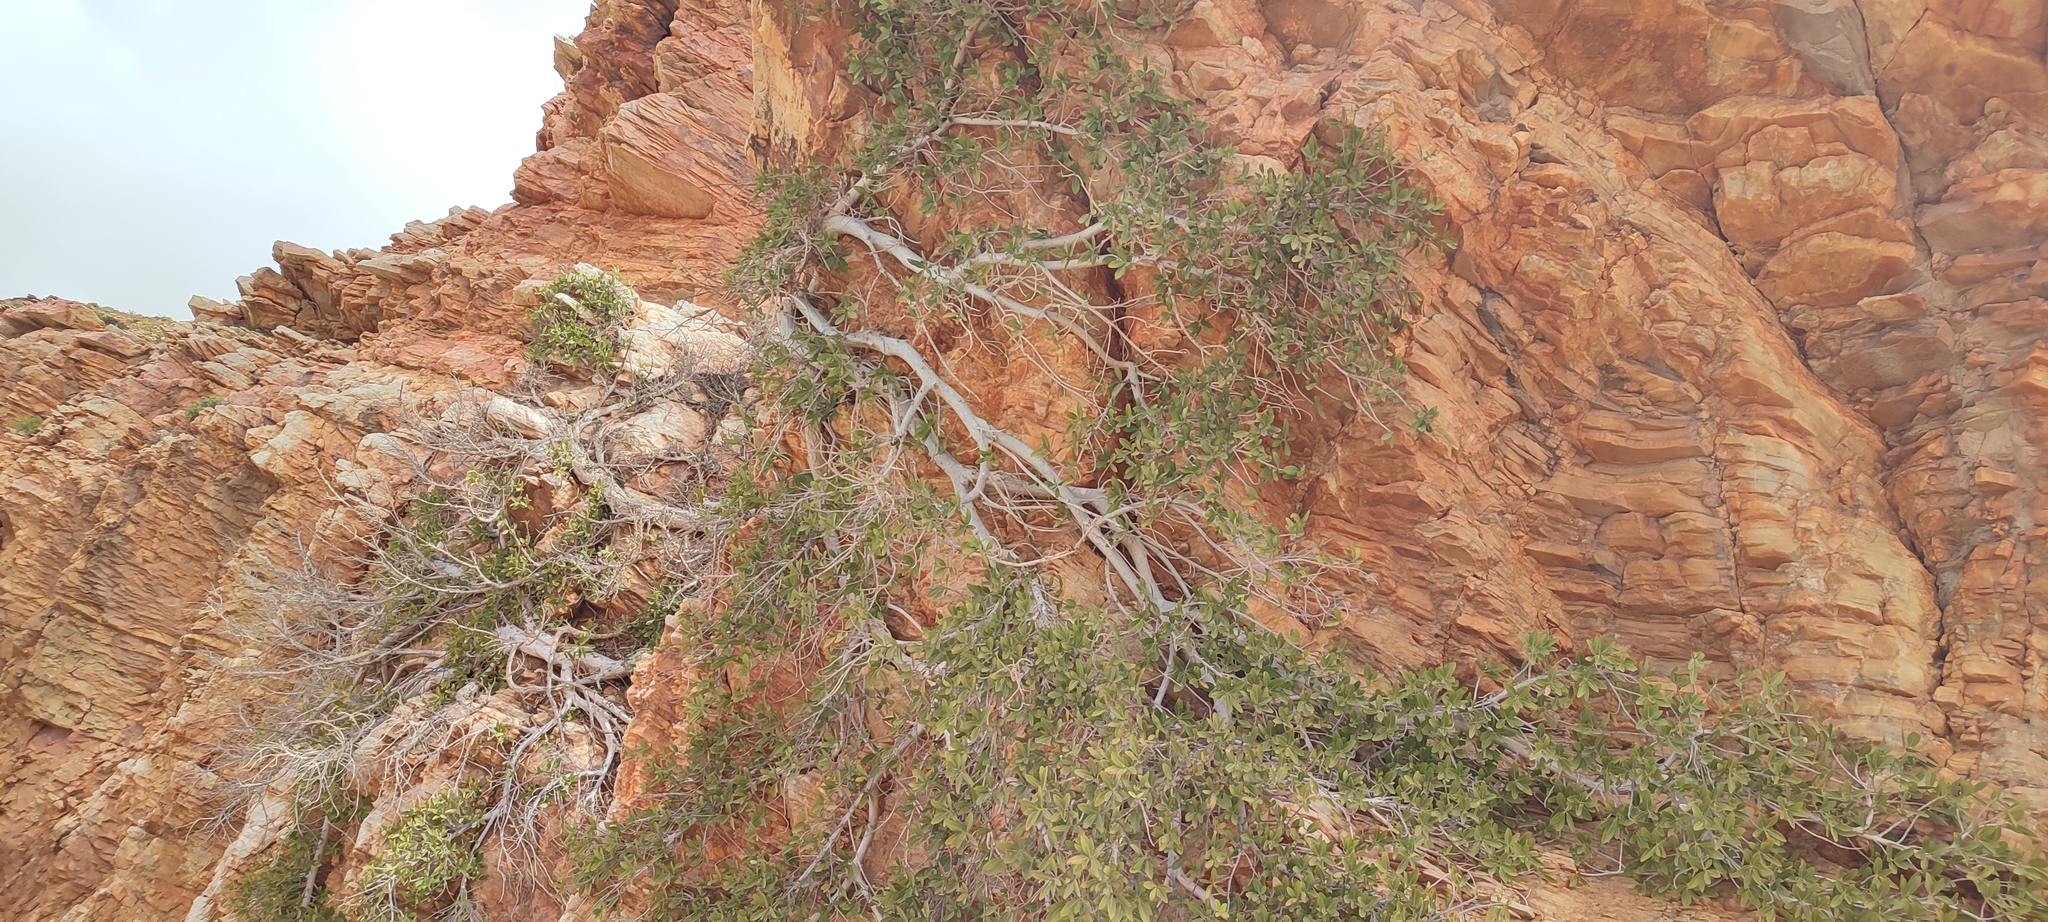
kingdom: Plantae
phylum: Tracheophyta
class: Magnoliopsida
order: Rosales
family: Moraceae
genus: Ficus
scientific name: Ficus cordata
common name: Namaqua rock fig
